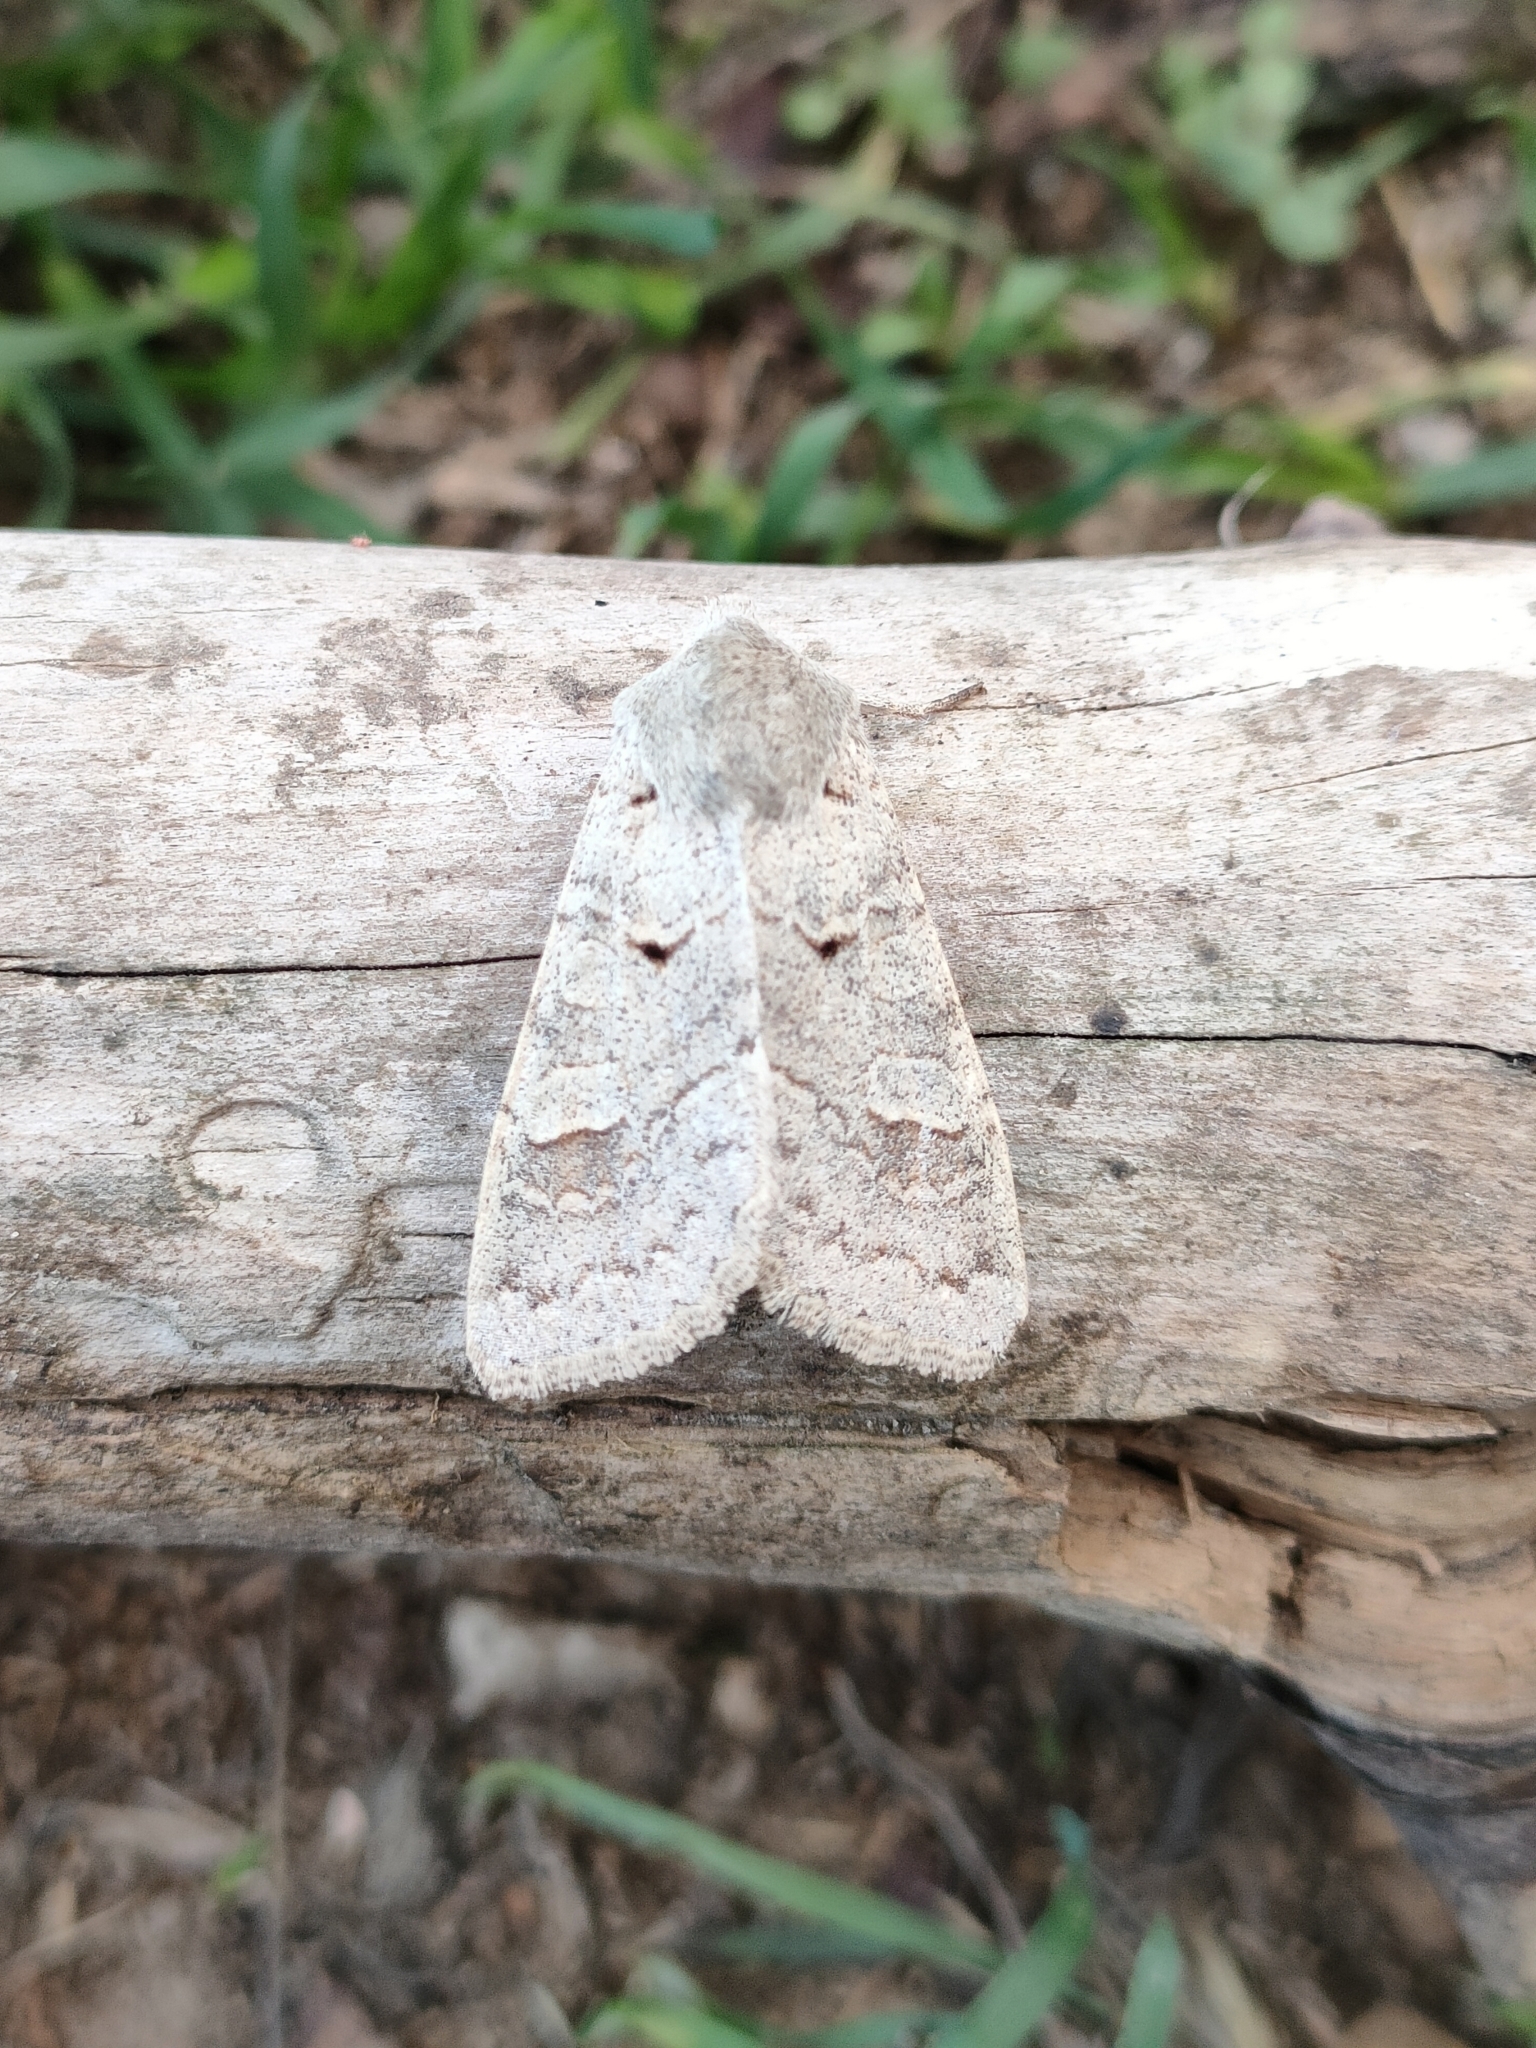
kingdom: Animalia
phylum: Arthropoda
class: Insecta
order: Lepidoptera
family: Noctuidae
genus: Ammoconia
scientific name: Ammoconia caecimacula
